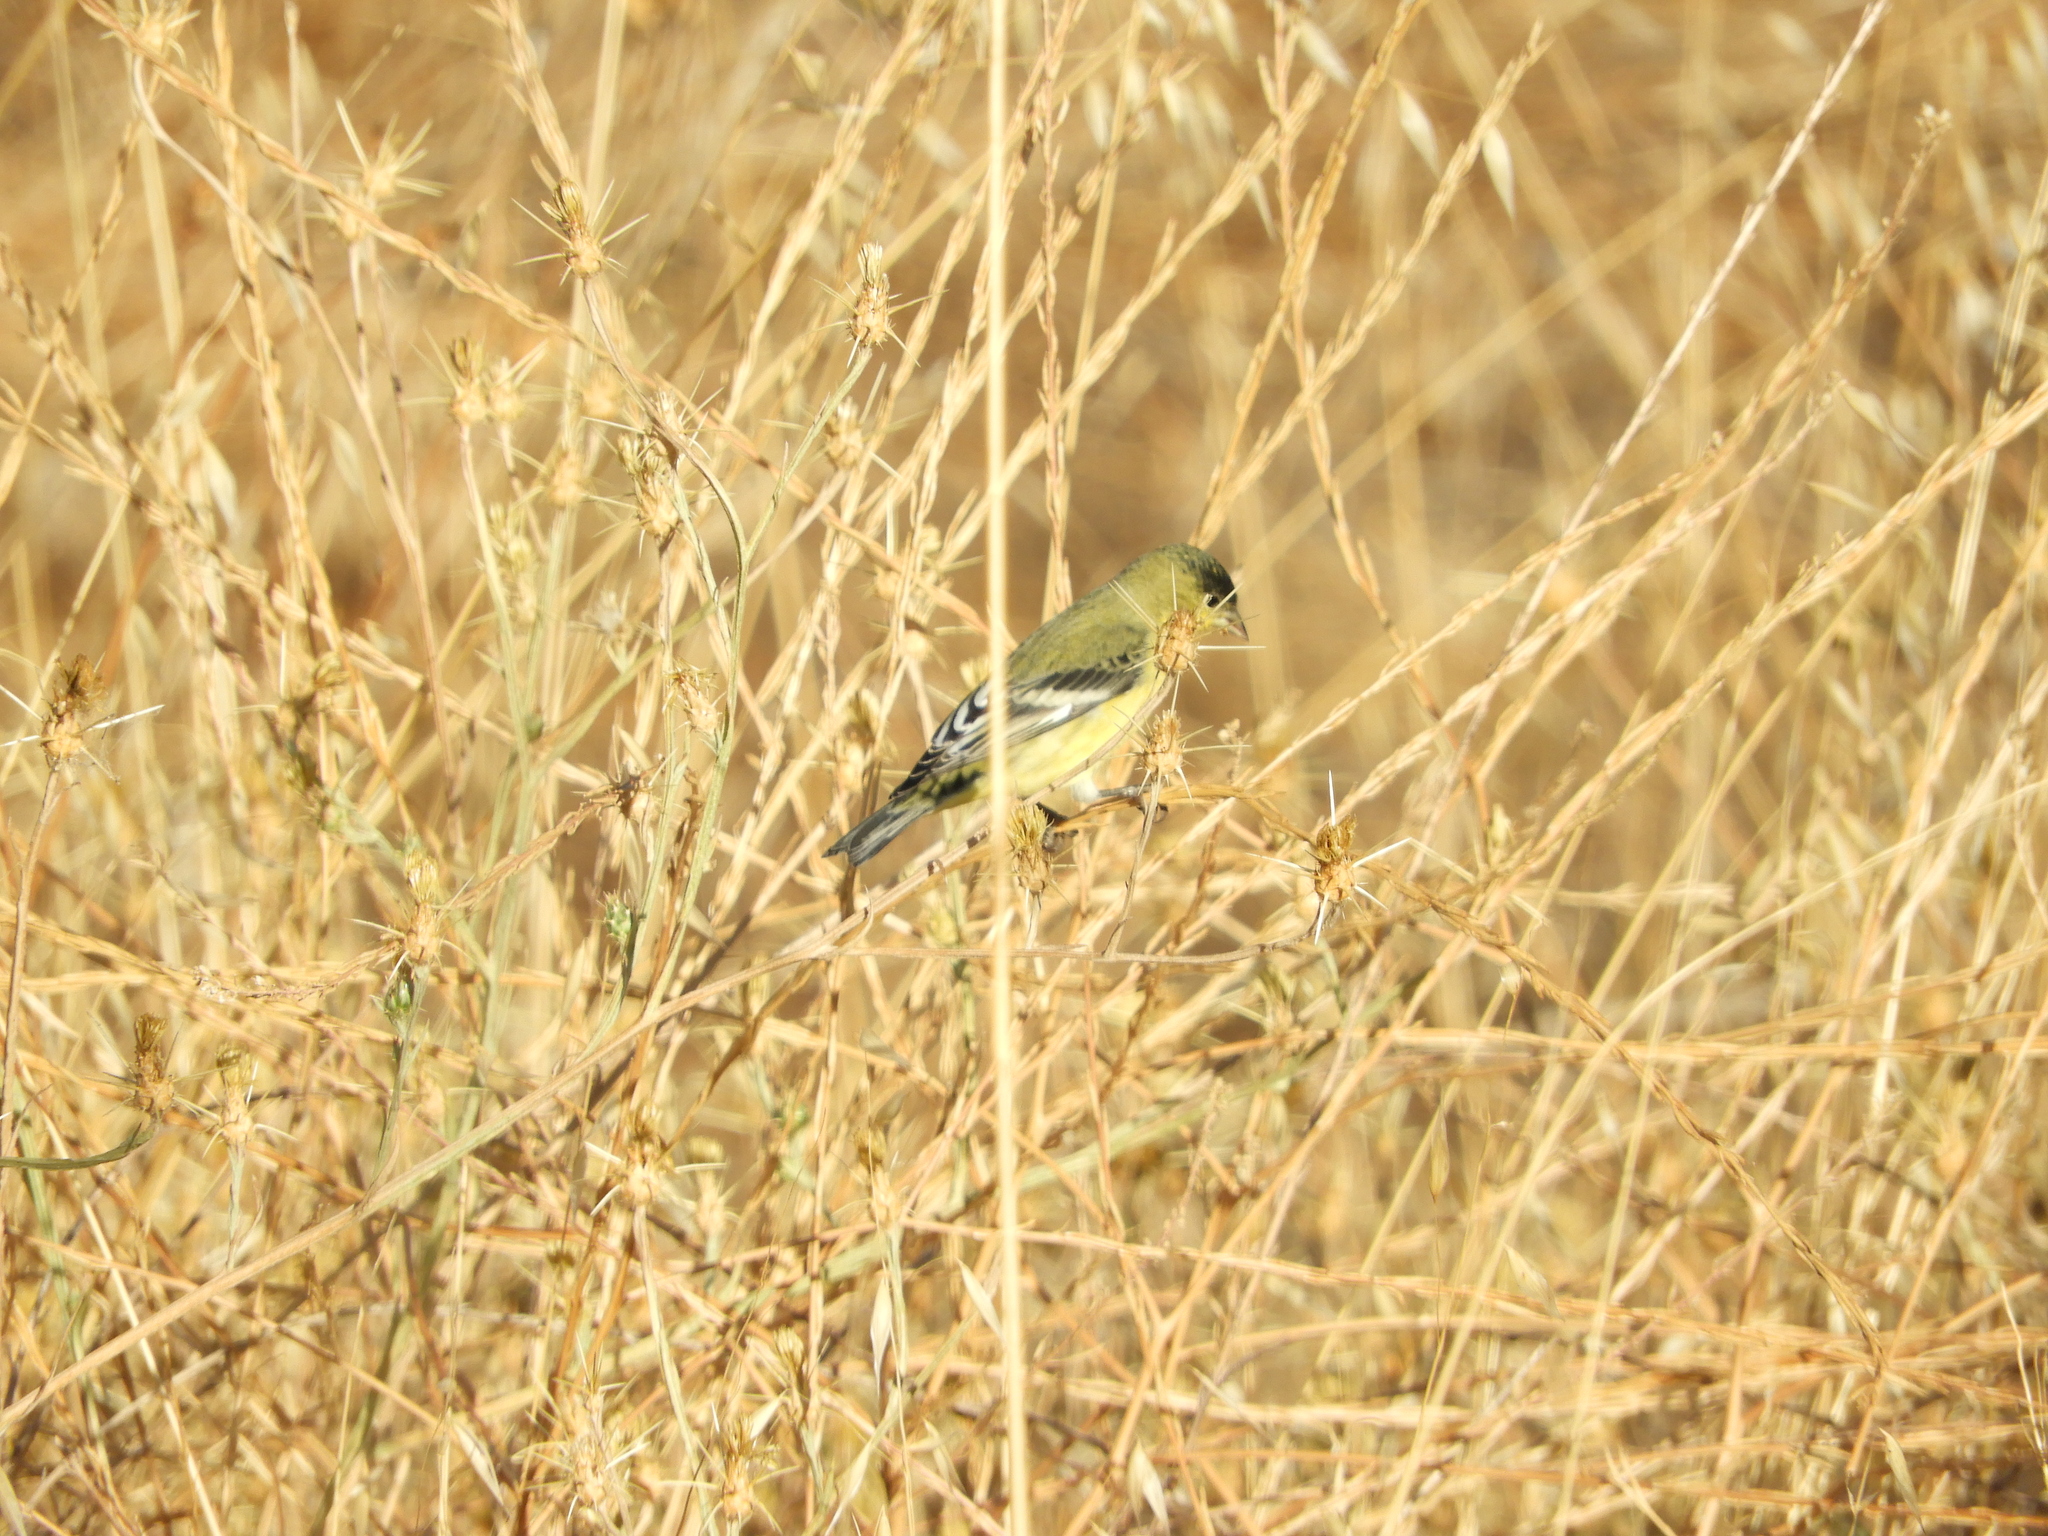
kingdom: Animalia
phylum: Chordata
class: Aves
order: Passeriformes
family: Fringillidae
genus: Spinus
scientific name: Spinus psaltria
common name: Lesser goldfinch
